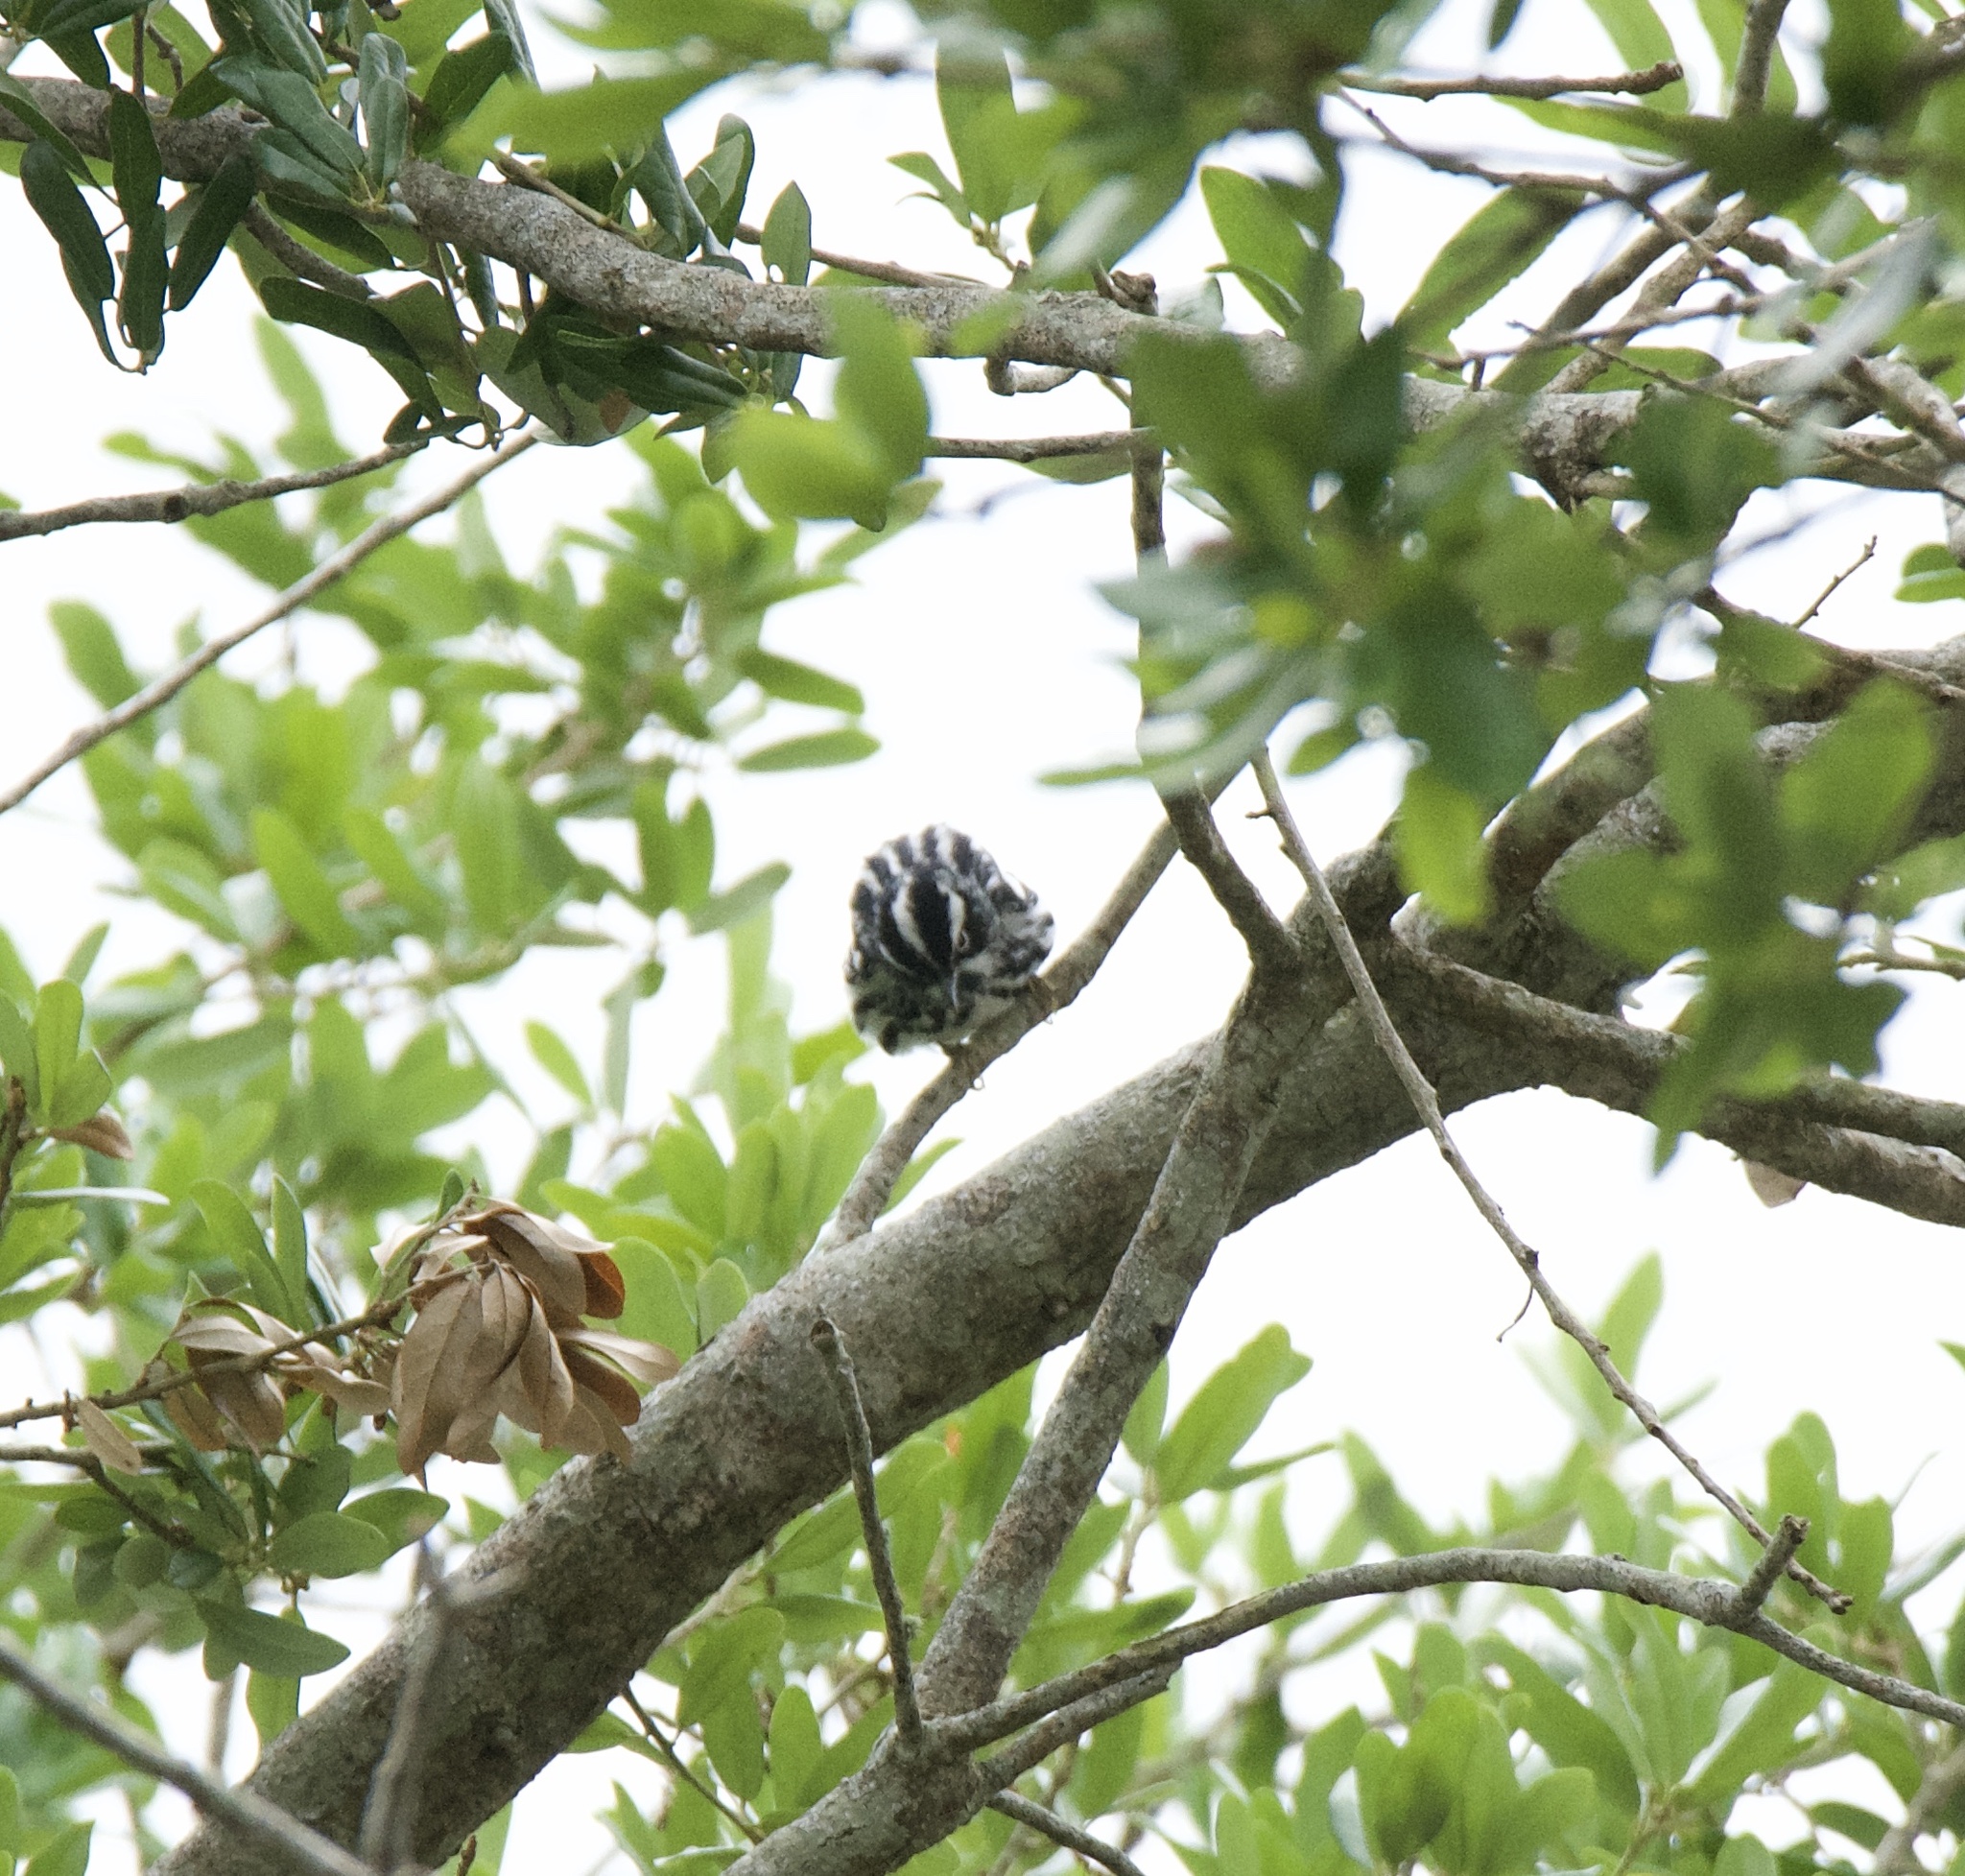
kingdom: Animalia
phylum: Chordata
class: Aves
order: Passeriformes
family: Parulidae
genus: Mniotilta
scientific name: Mniotilta varia
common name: Black-and-white warbler
